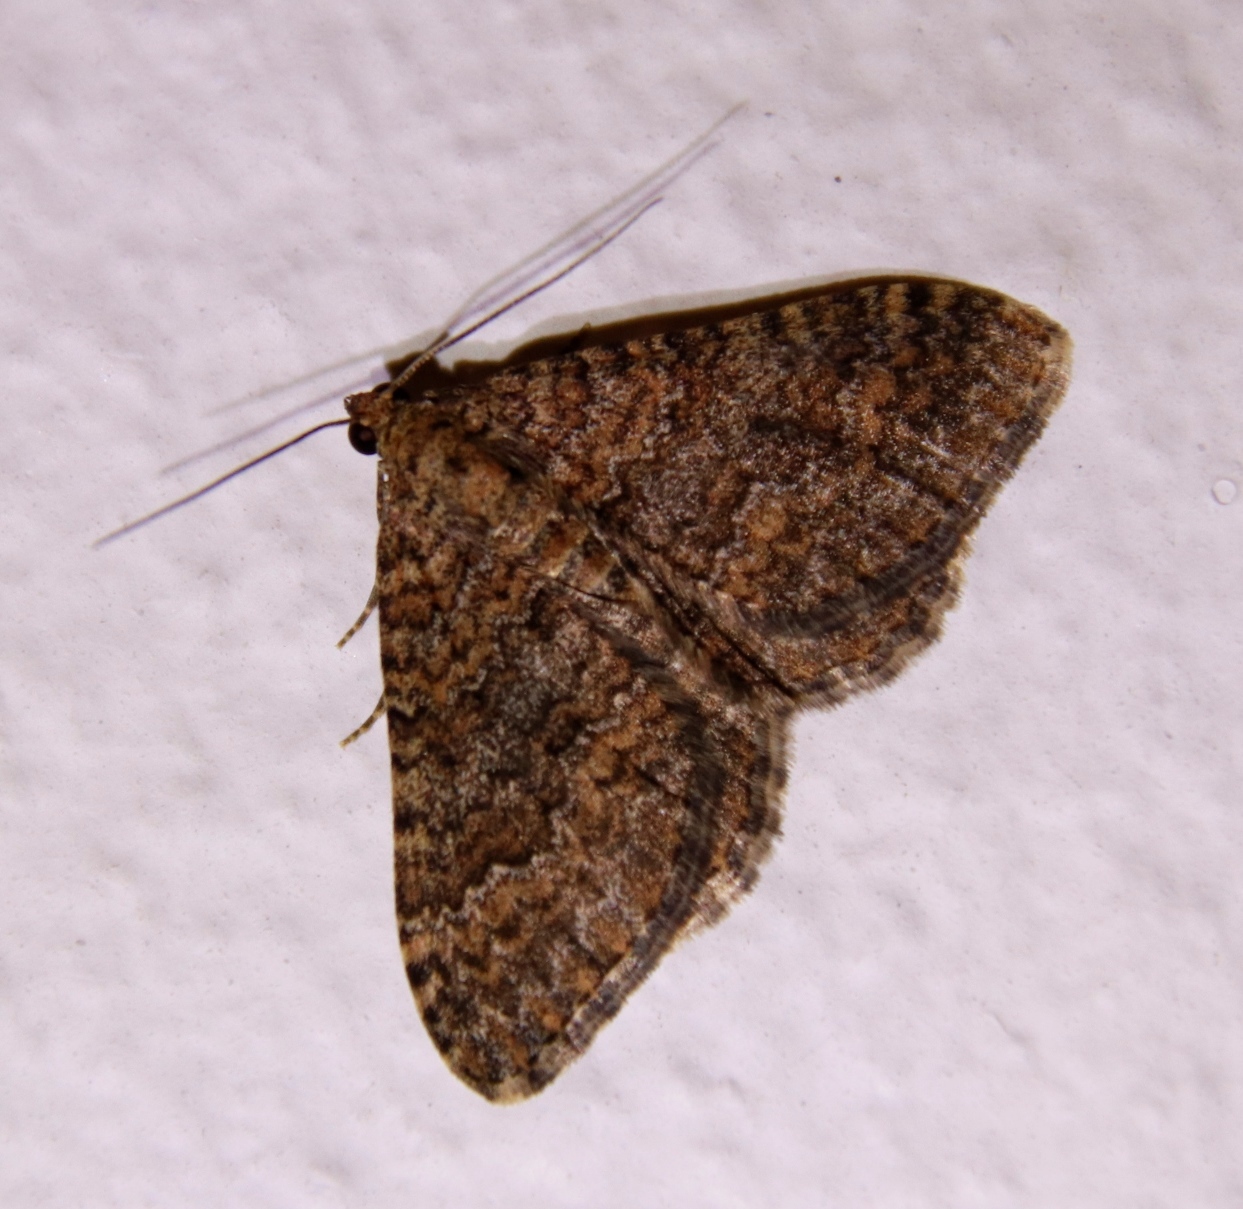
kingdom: Animalia
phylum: Arthropoda
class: Insecta
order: Lepidoptera
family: Geometridae
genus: Mimoclystia
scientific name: Mimoclystia pudicata
